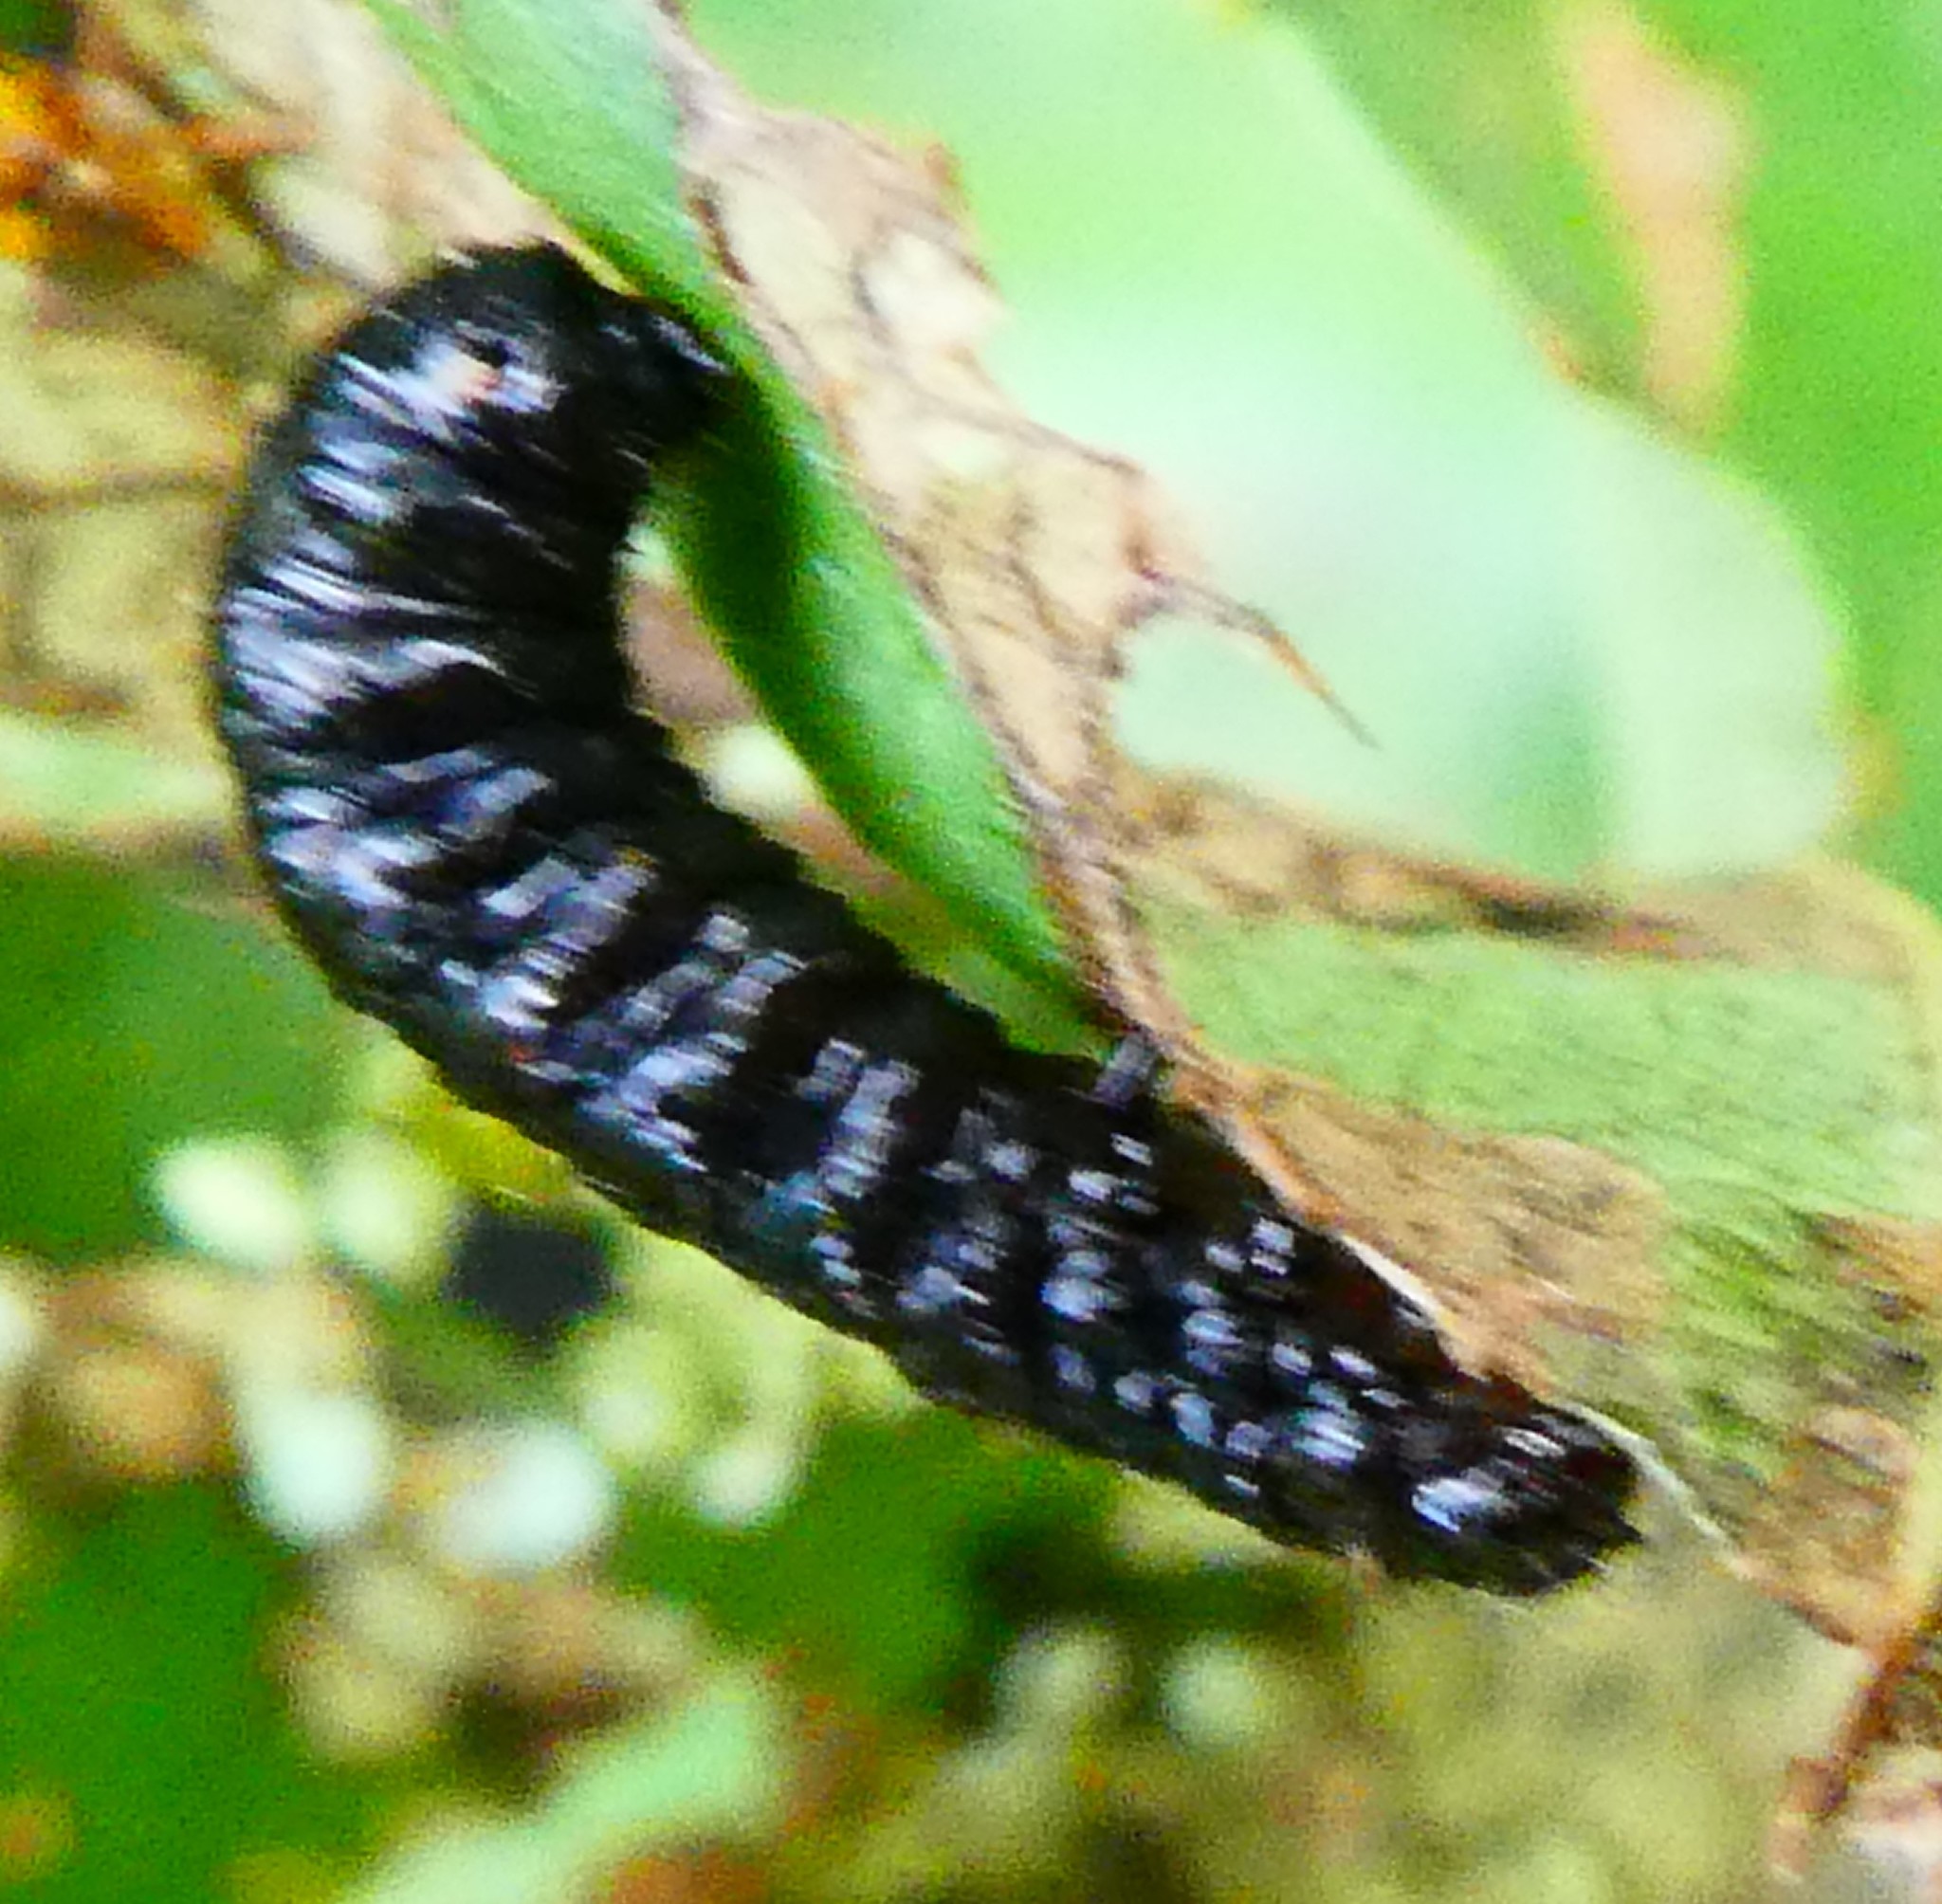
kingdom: Animalia
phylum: Arthropoda
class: Insecta
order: Coleoptera
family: Chrysomelidae
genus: Agelastica
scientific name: Agelastica alni
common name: Alder leaf beetle
